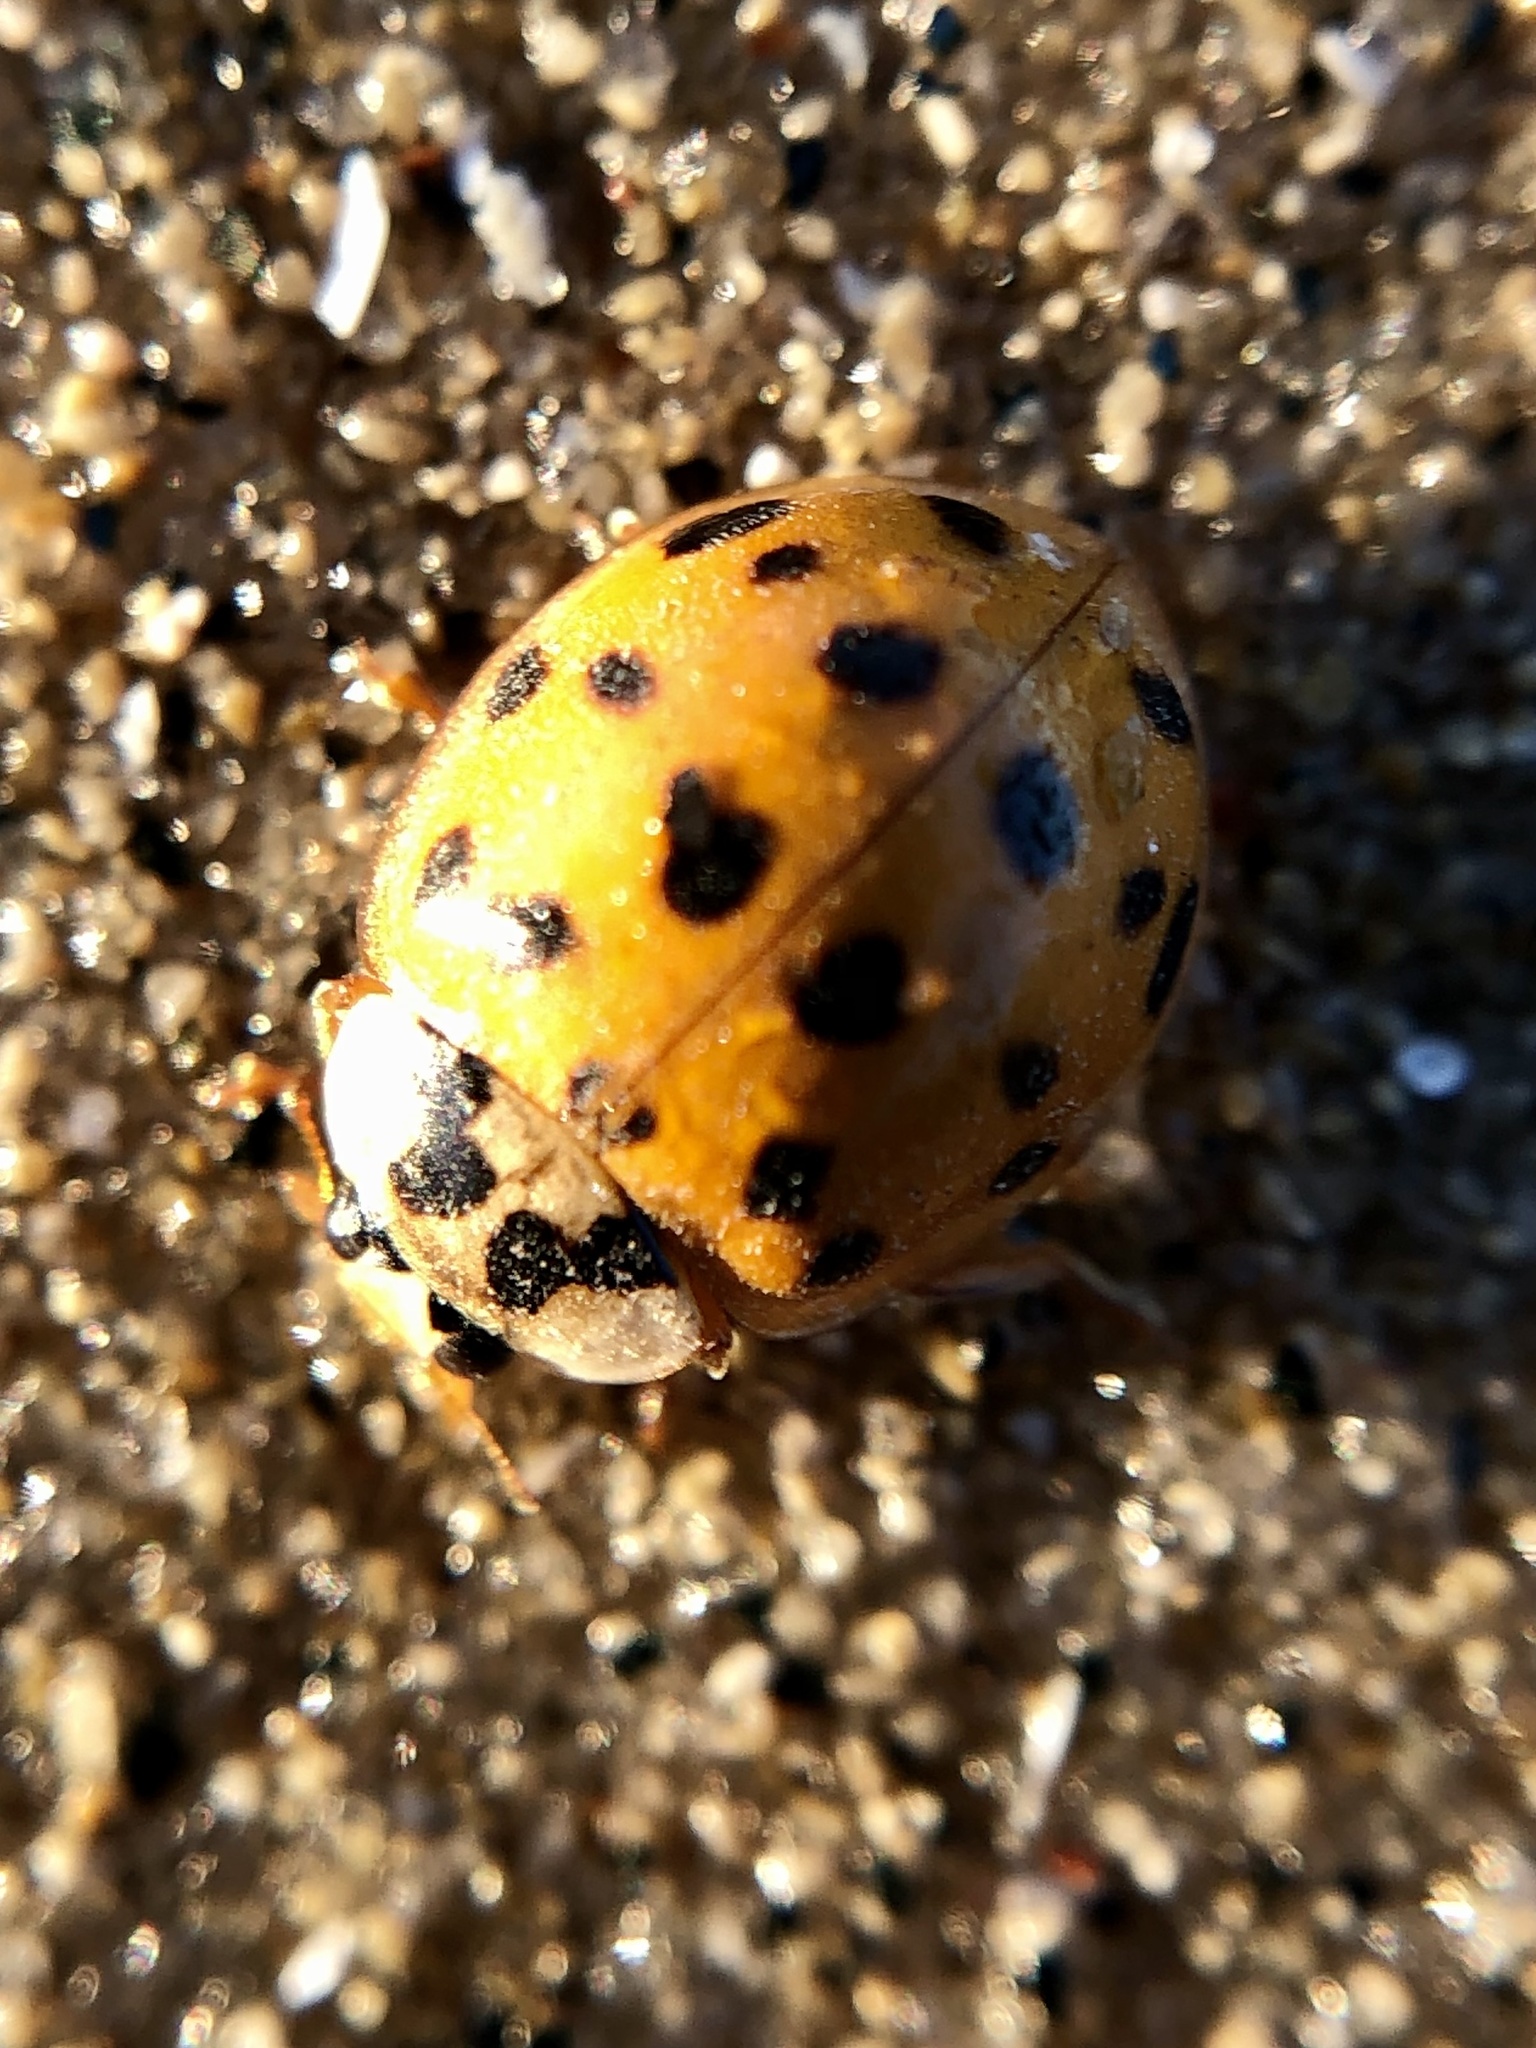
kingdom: Animalia
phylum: Arthropoda
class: Insecta
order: Coleoptera
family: Coccinellidae
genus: Harmonia
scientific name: Harmonia axyridis
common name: Harlequin ladybird
